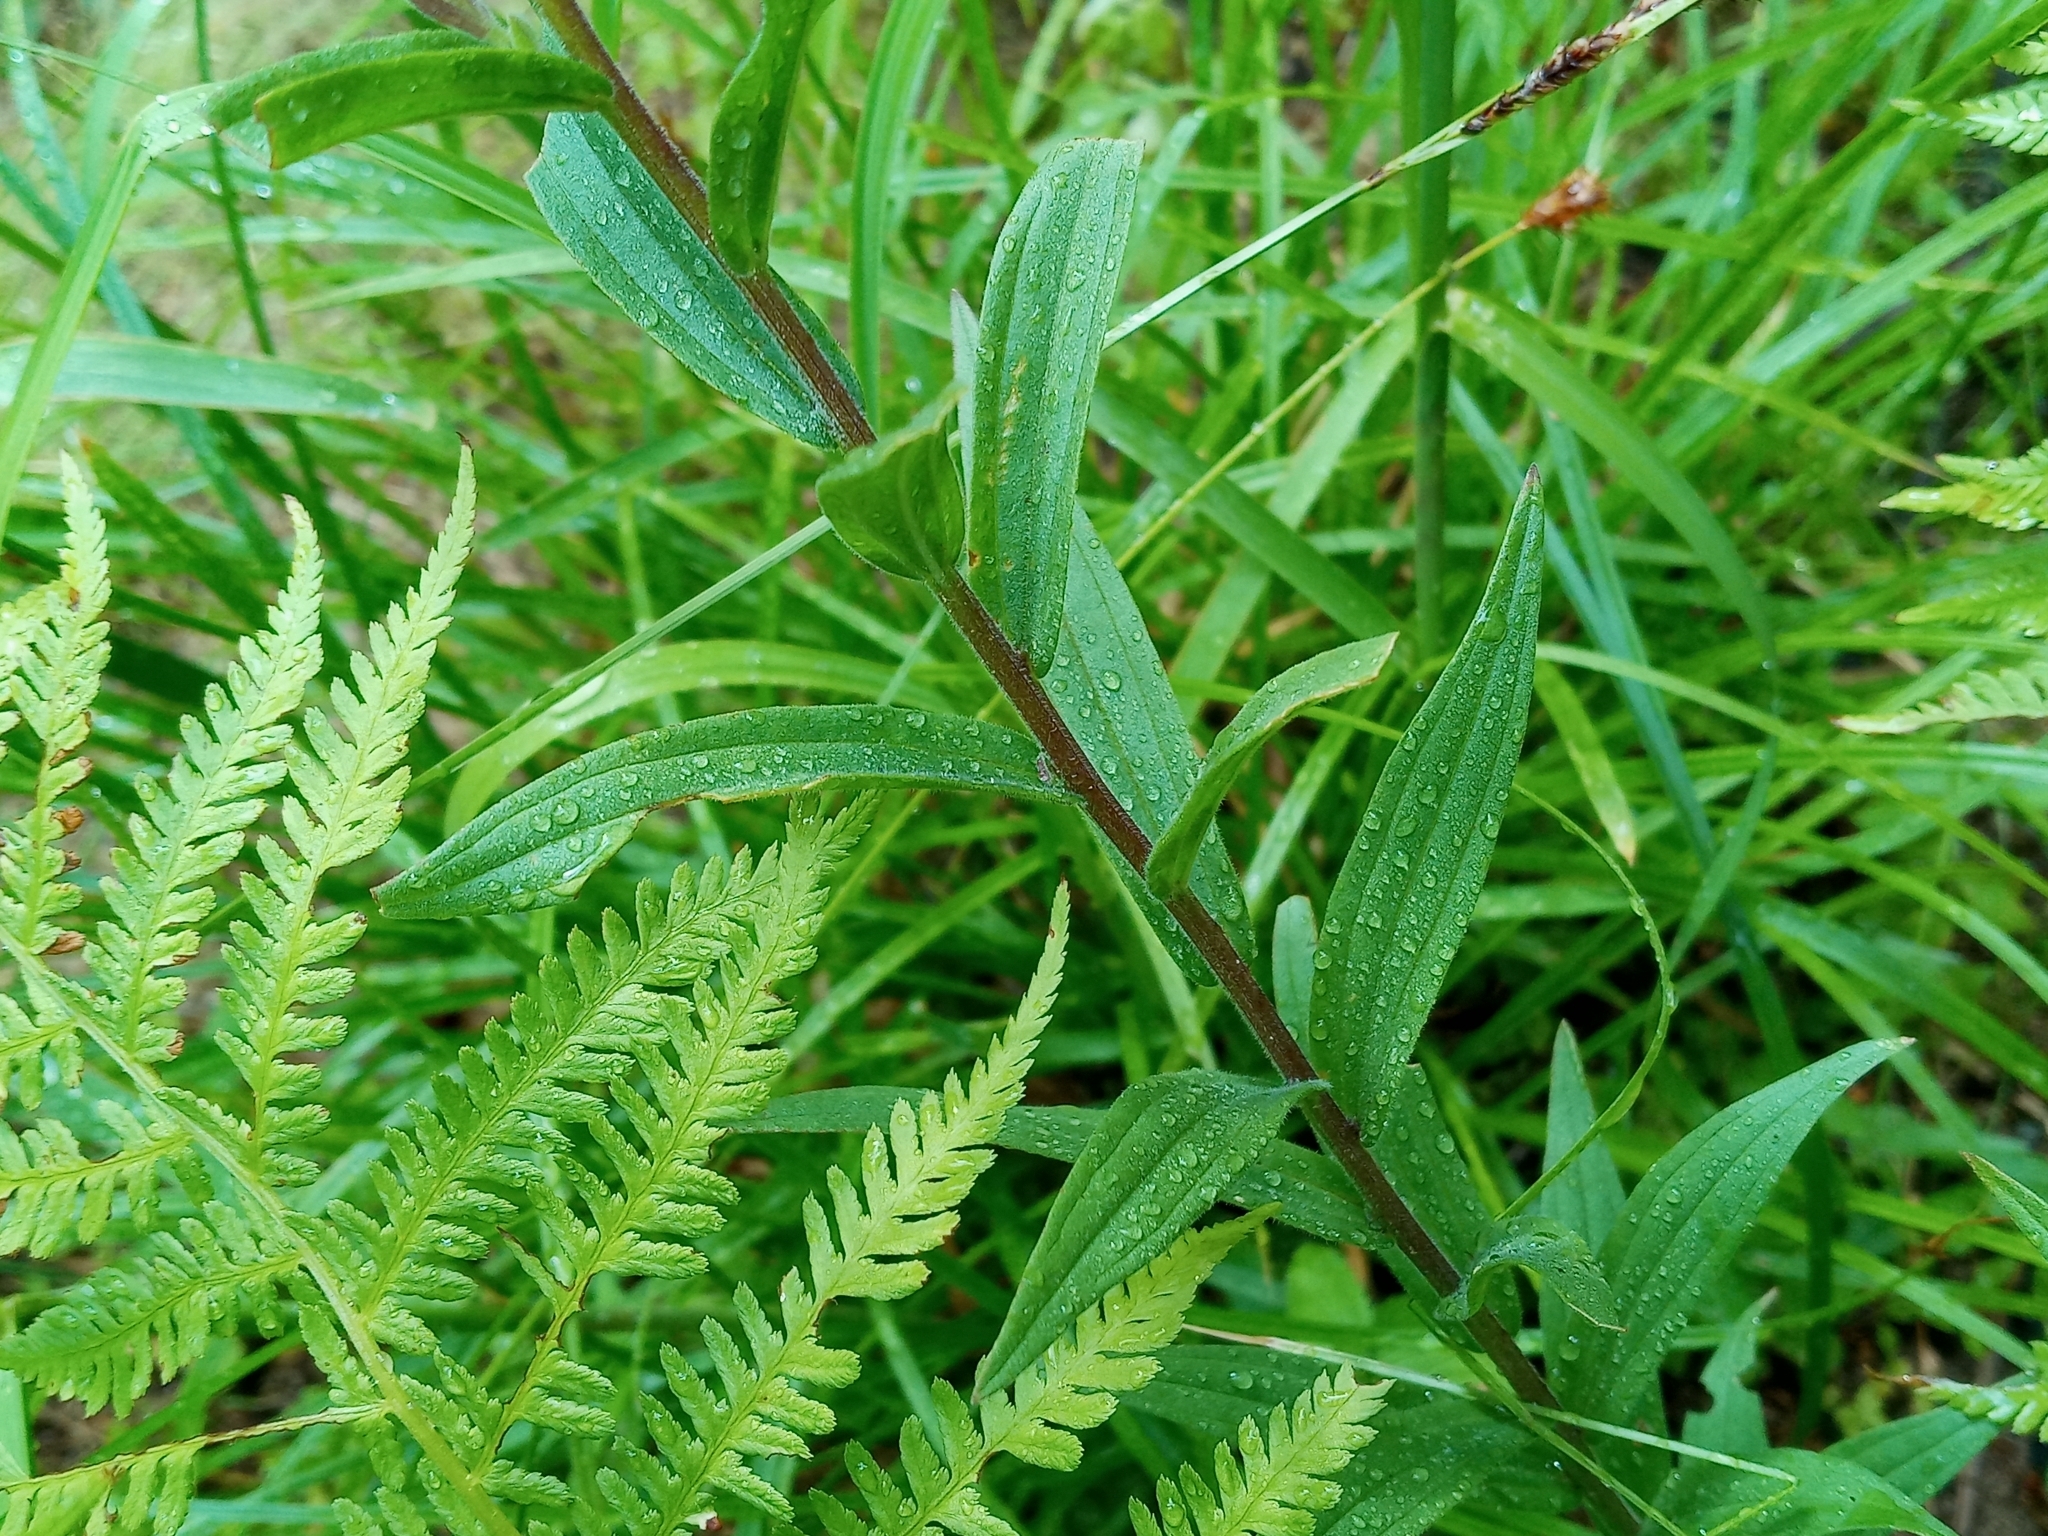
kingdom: Plantae
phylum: Tracheophyta
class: Magnoliopsida
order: Lamiales
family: Orobanchaceae
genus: Castilleja
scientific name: Castilleja miniata
